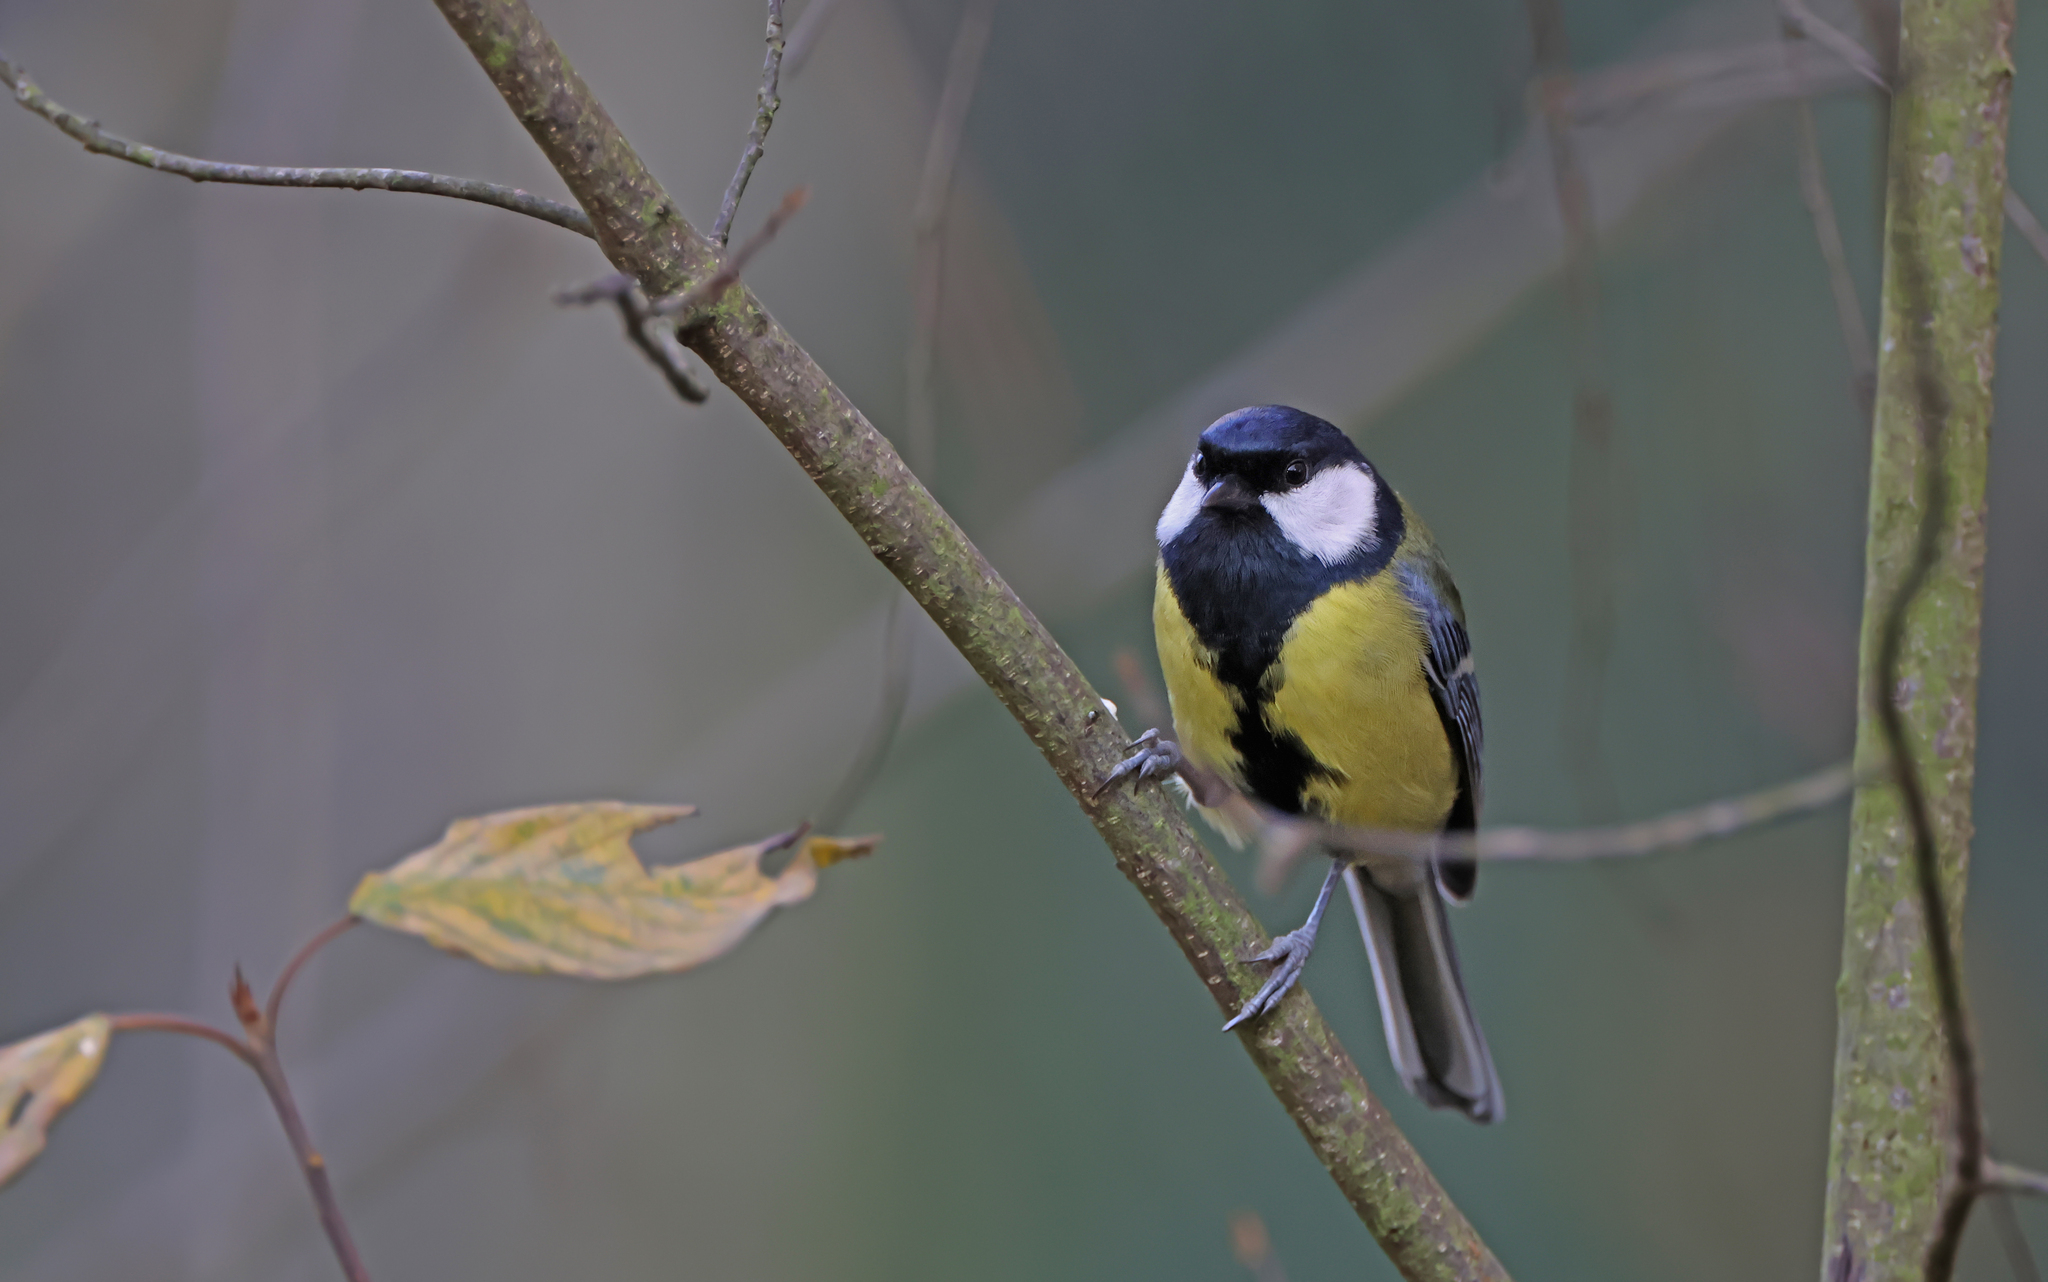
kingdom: Animalia
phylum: Chordata
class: Aves
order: Passeriformes
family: Paridae
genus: Parus
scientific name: Parus major
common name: Great tit
